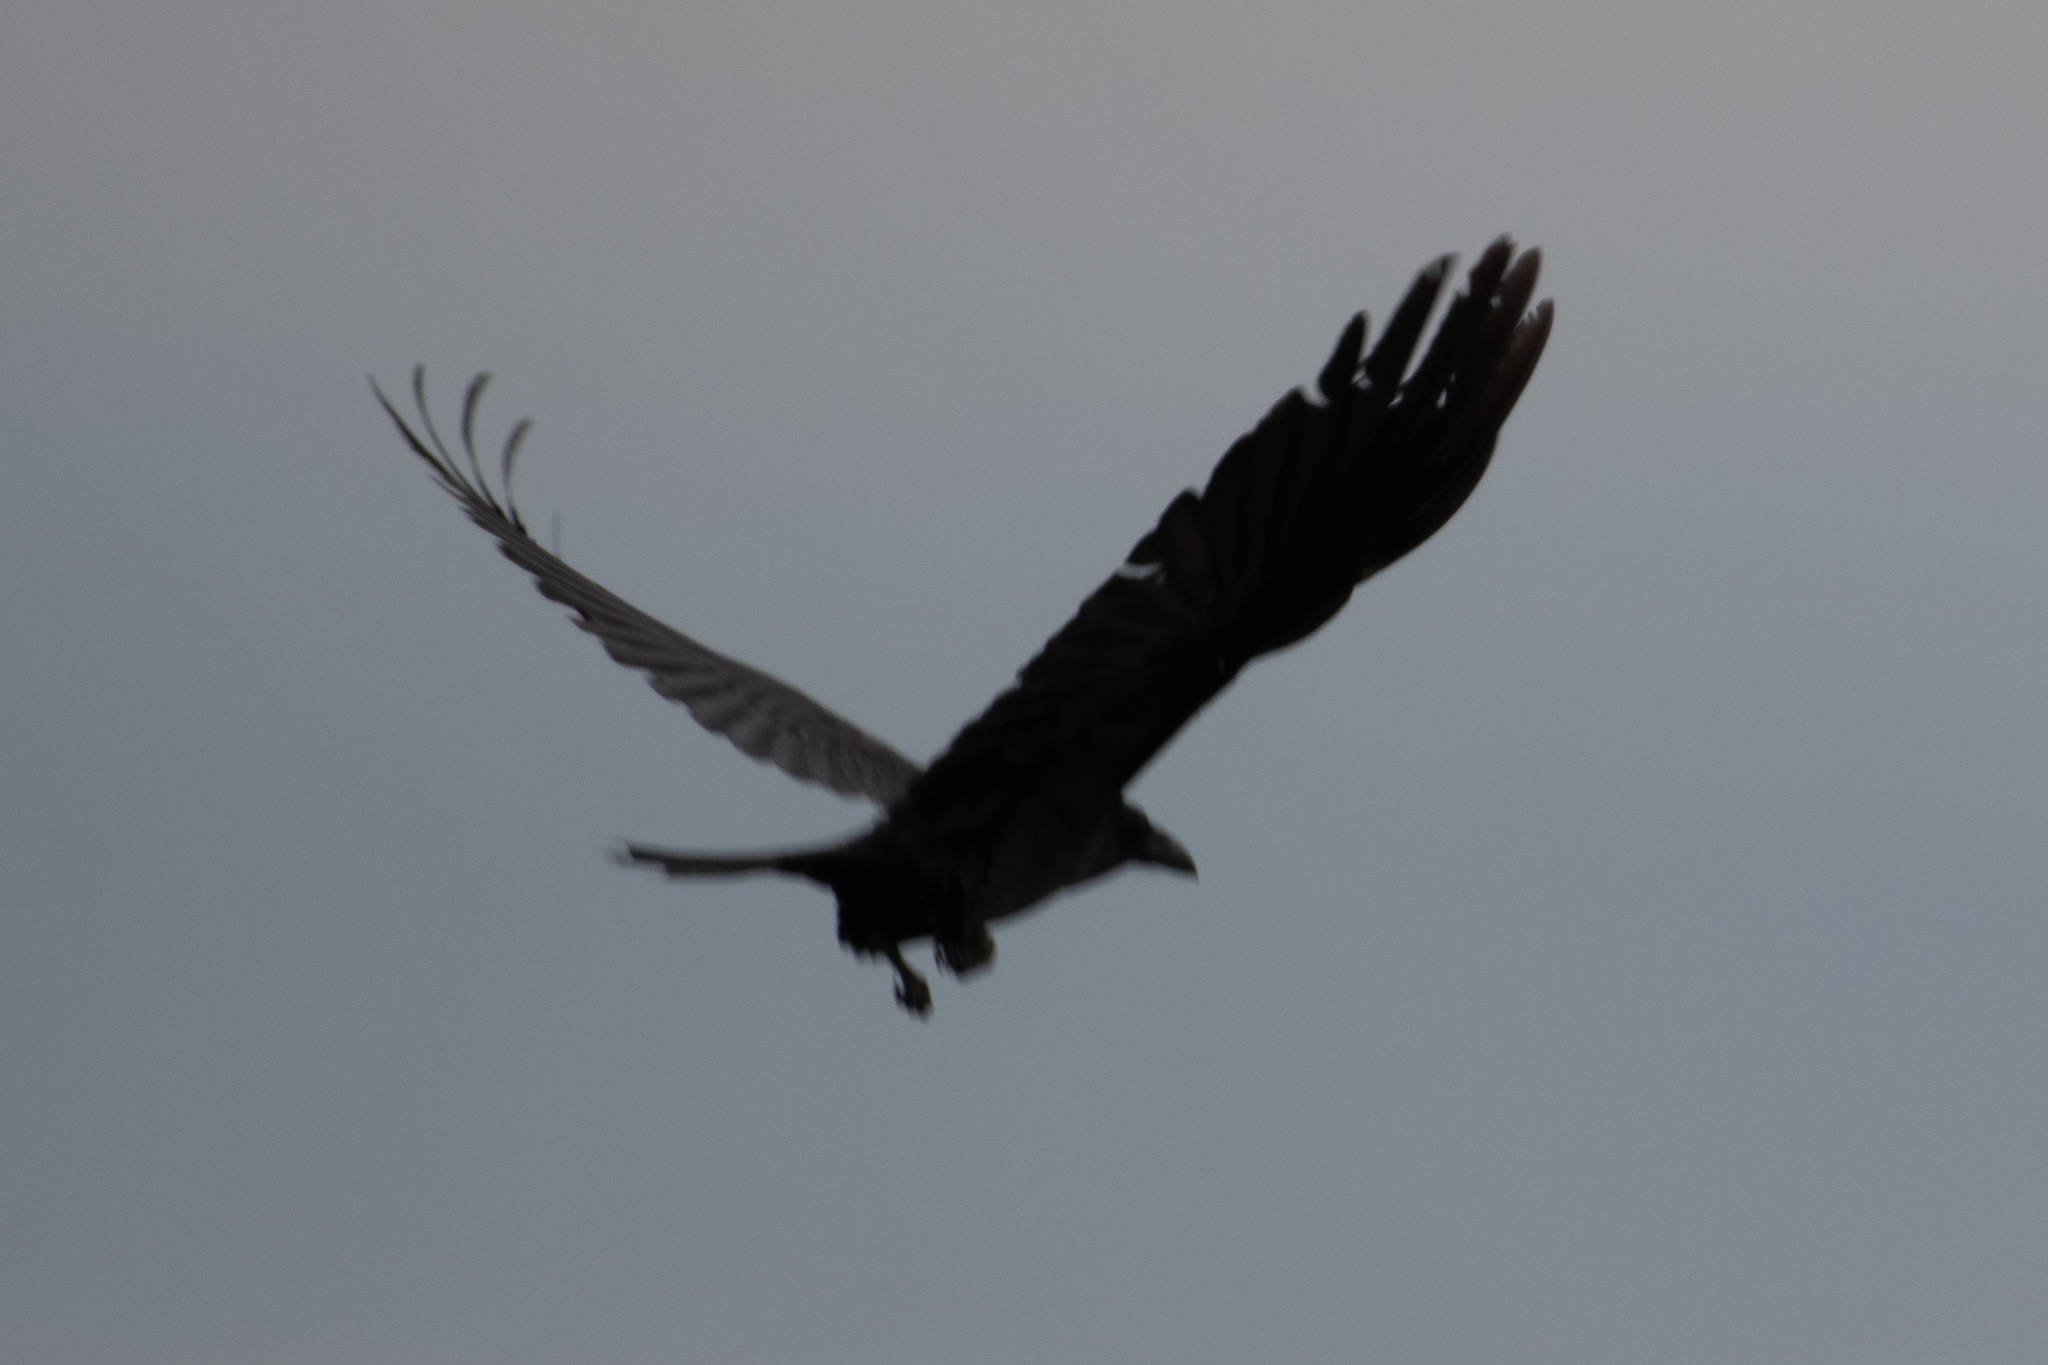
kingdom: Animalia
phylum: Chordata
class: Aves
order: Passeriformes
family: Corvidae
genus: Corvus
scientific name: Corvus corax
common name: Common raven
